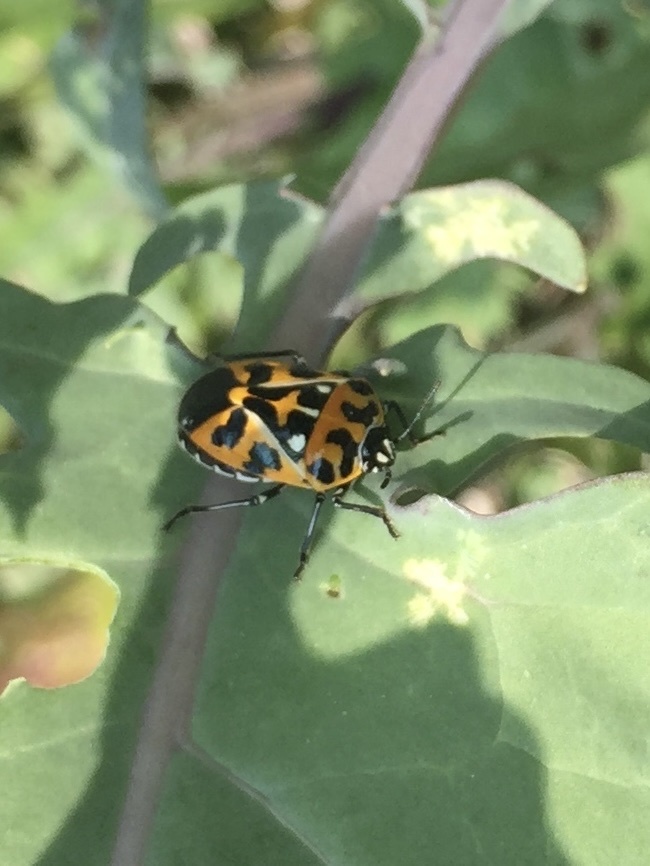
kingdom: Animalia
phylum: Arthropoda
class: Insecta
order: Hemiptera
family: Pentatomidae
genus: Murgantia
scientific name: Murgantia histrionica
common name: Harlequin bug
